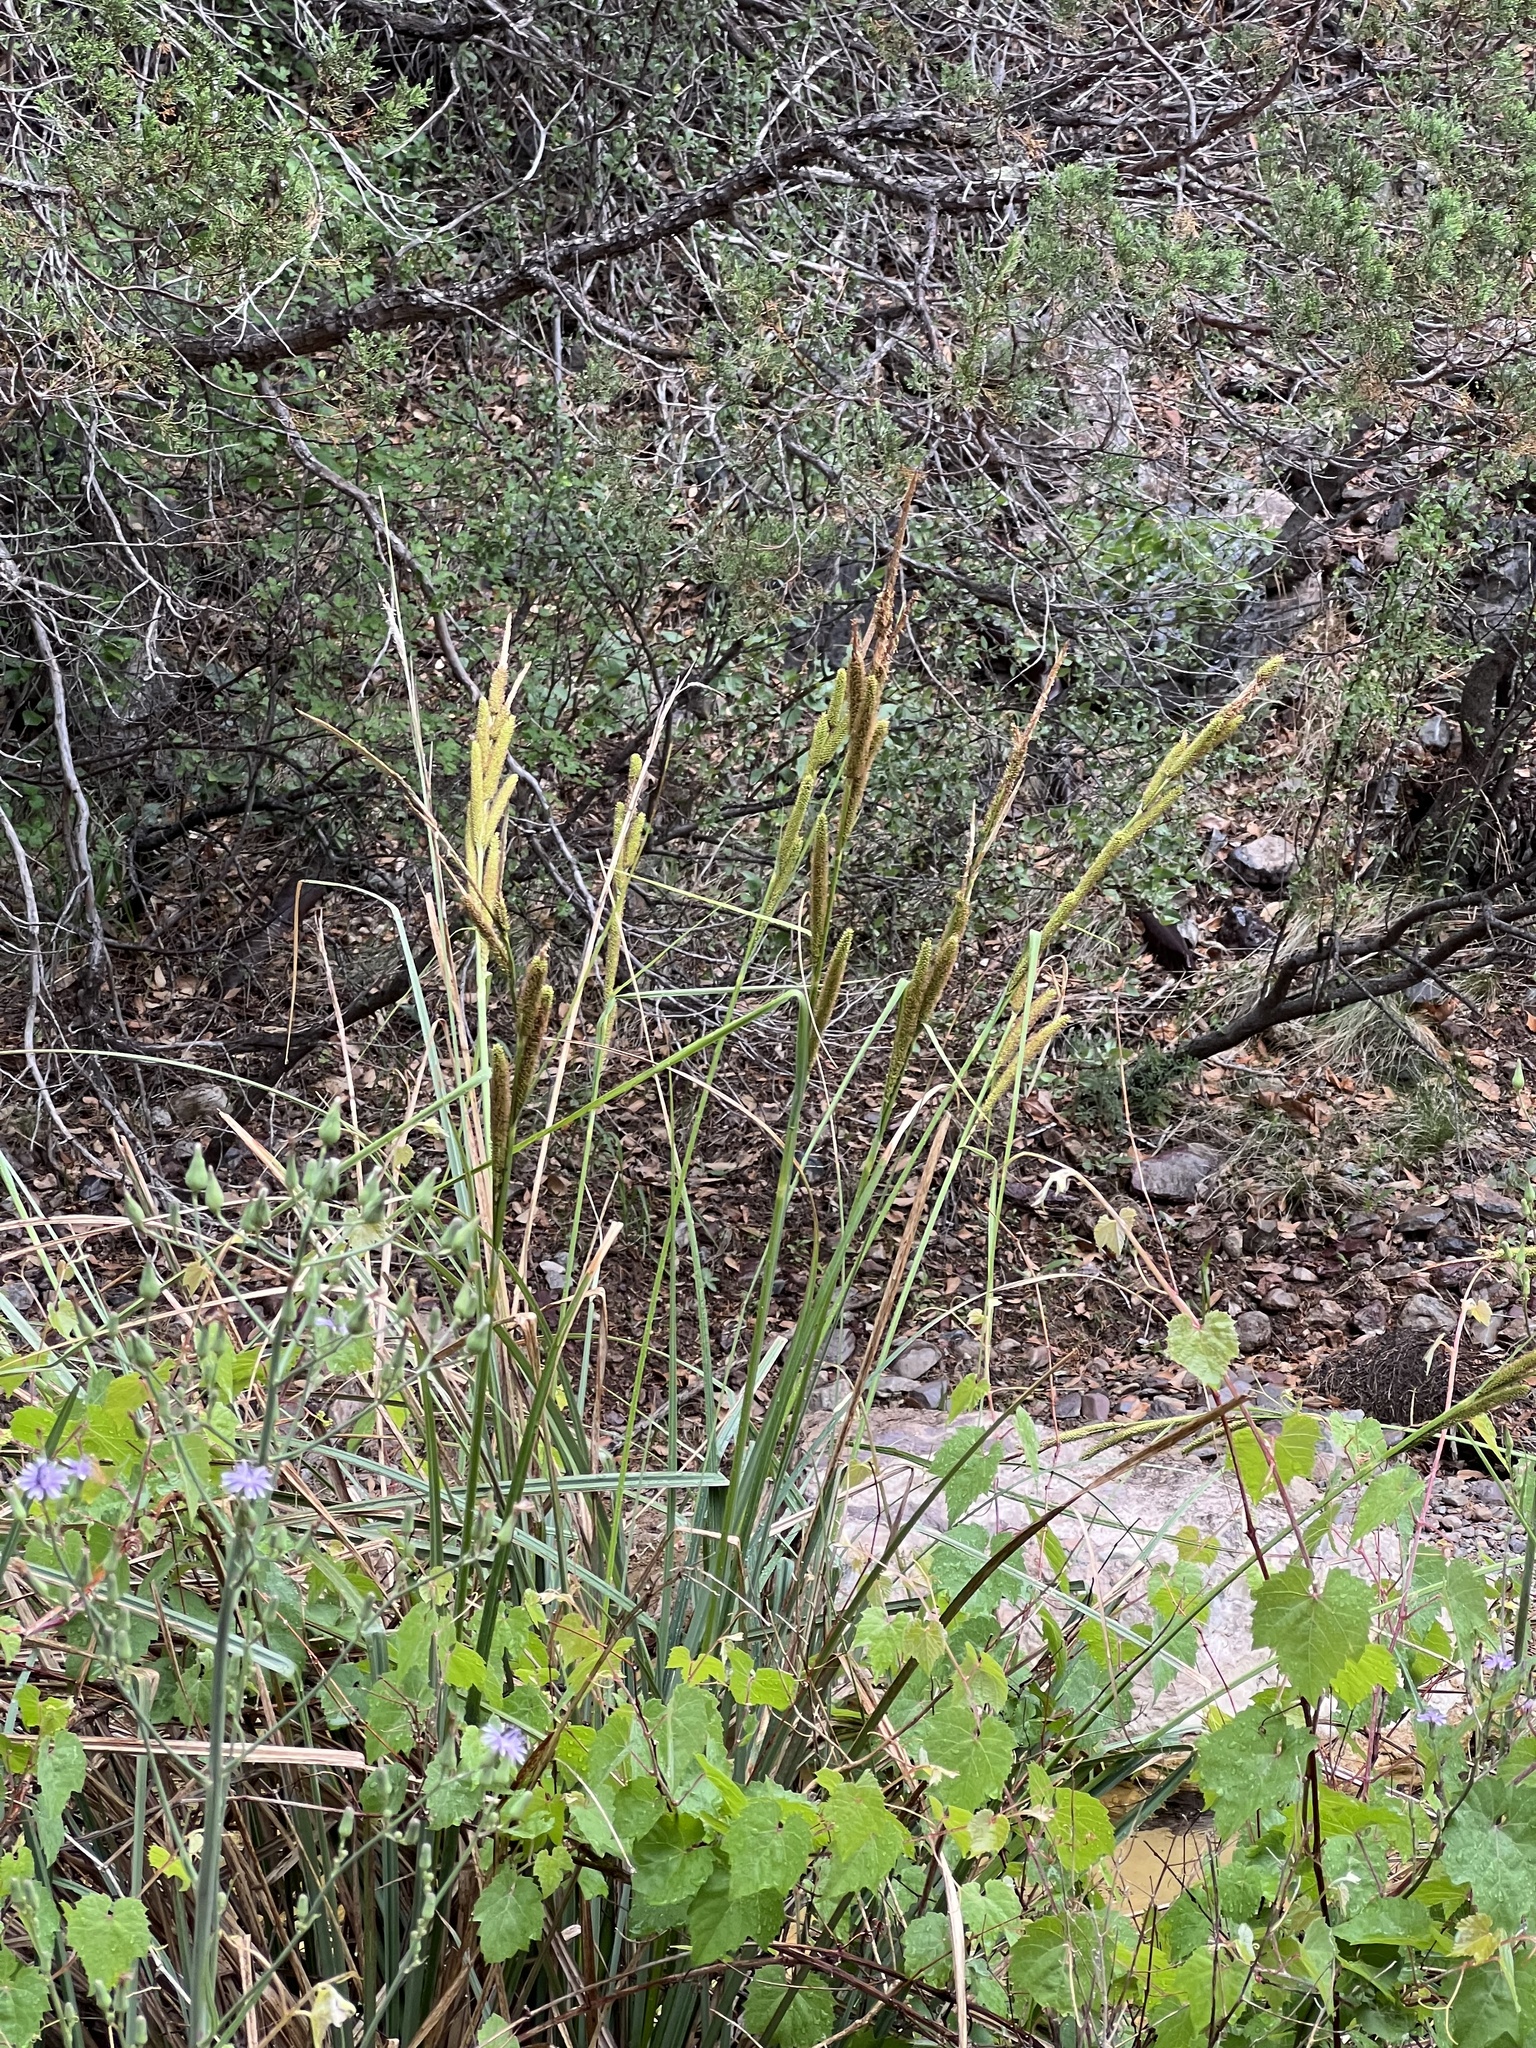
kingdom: Plantae
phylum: Tracheophyta
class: Liliopsida
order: Poales
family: Cyperaceae
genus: Carex
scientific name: Carex ultra
